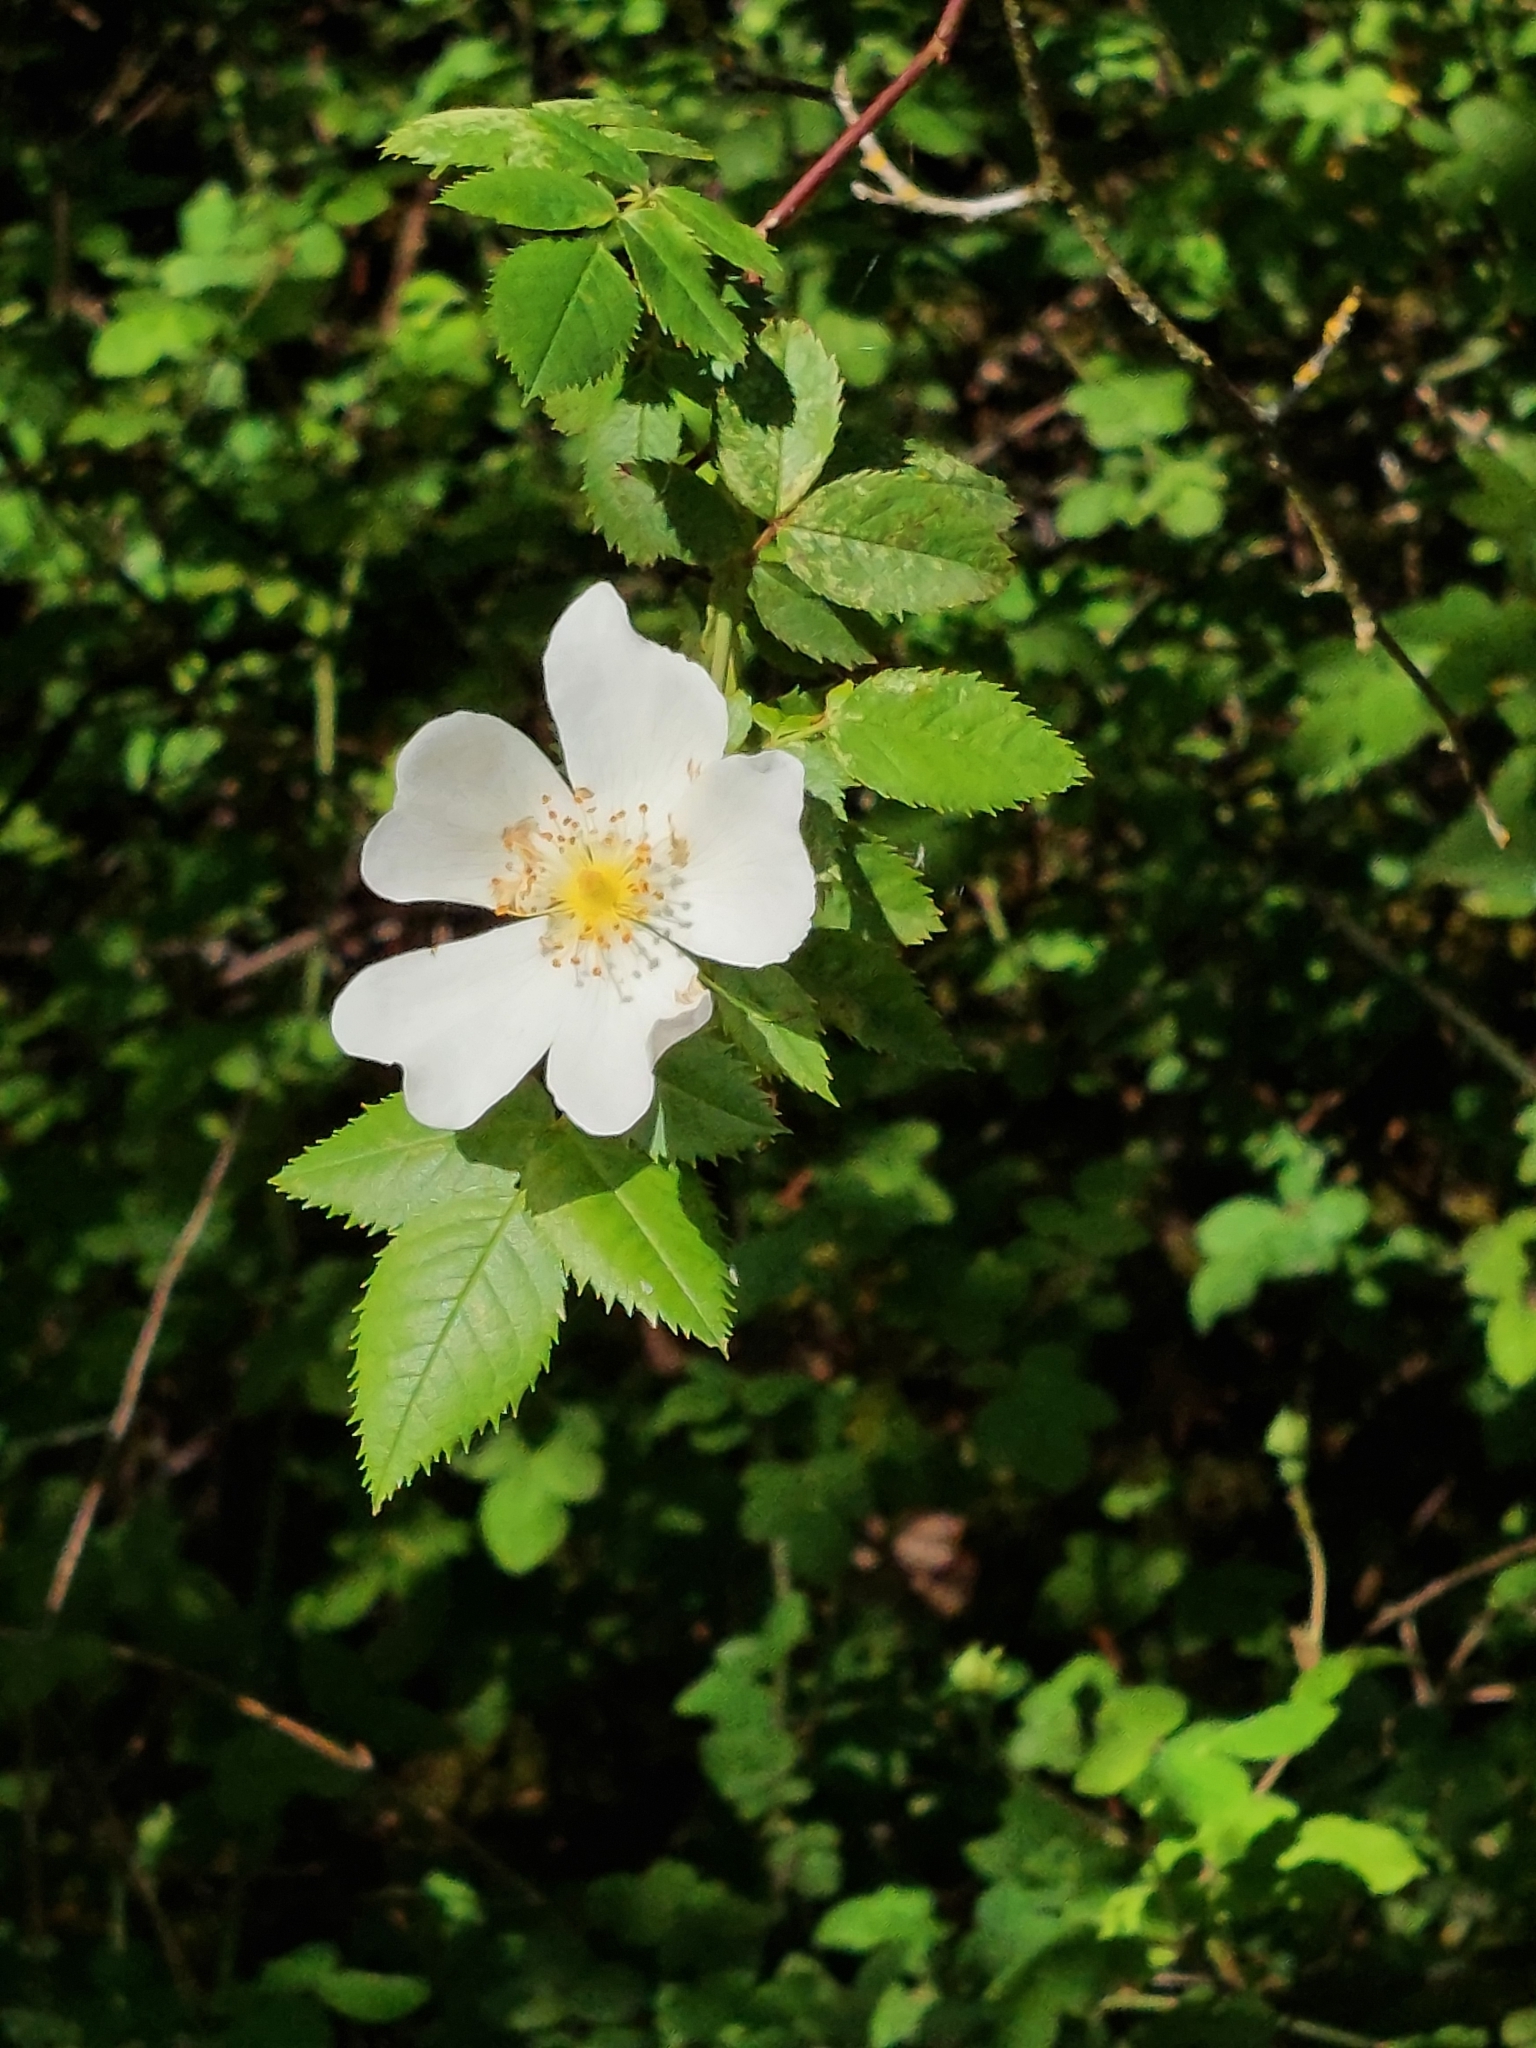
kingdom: Plantae
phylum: Tracheophyta
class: Magnoliopsida
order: Rosales
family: Rosaceae
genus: Rosa
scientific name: Rosa canina
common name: Dog rose
